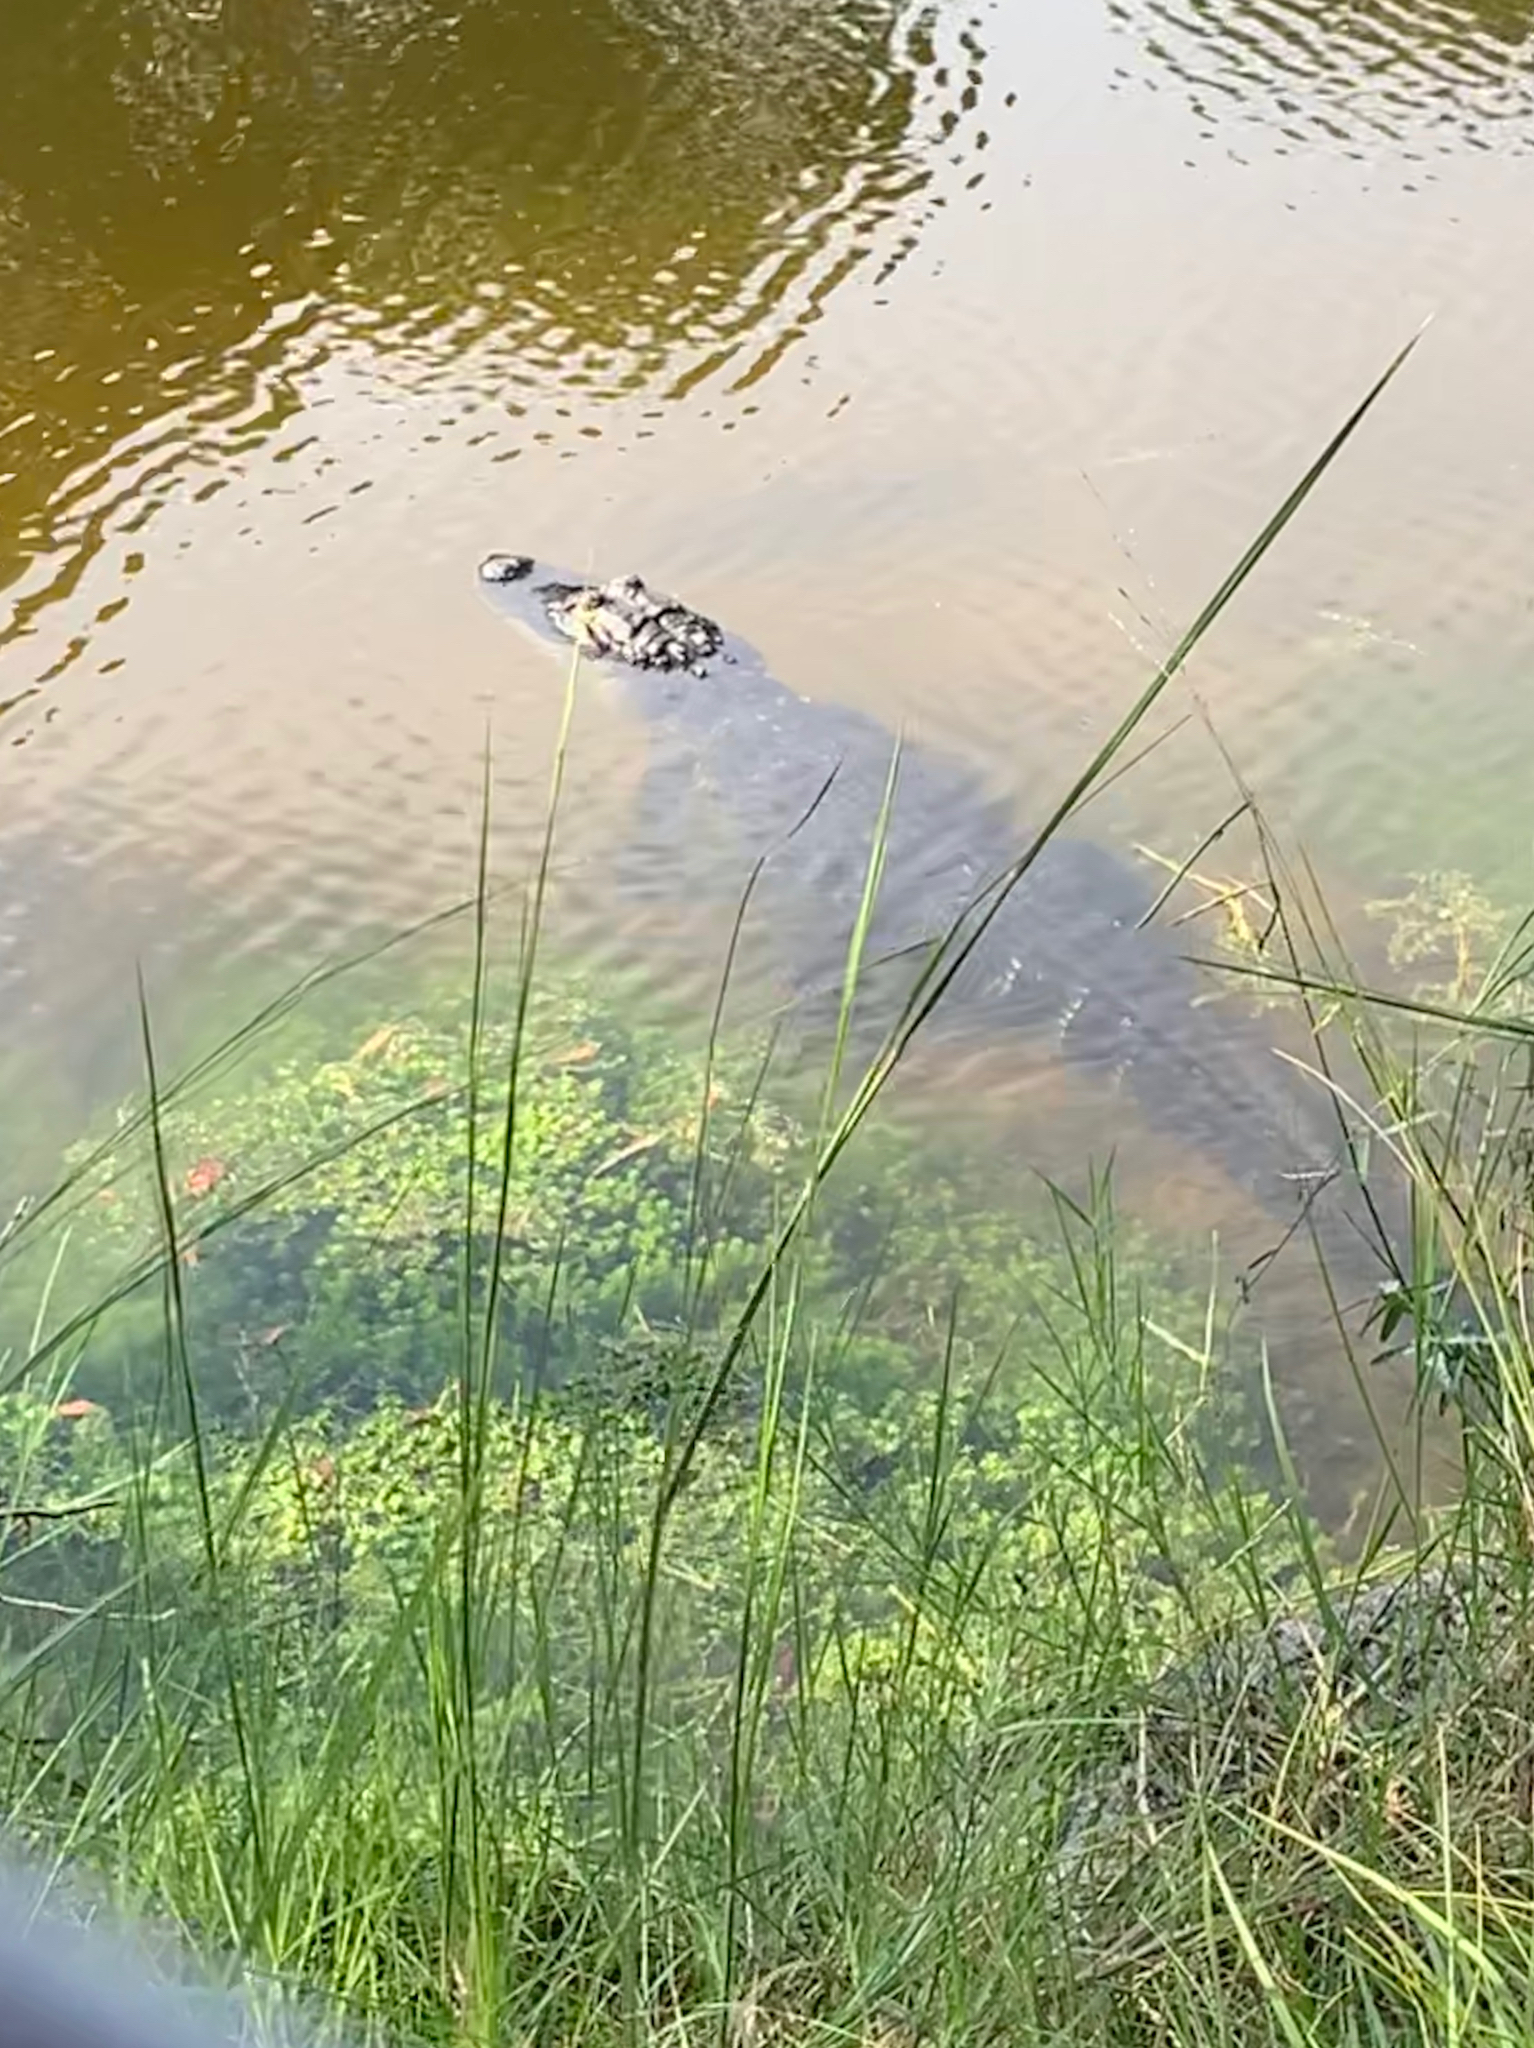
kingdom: Animalia
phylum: Chordata
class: Crocodylia
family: Alligatoridae
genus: Alligator
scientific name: Alligator mississippiensis
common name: American alligator
